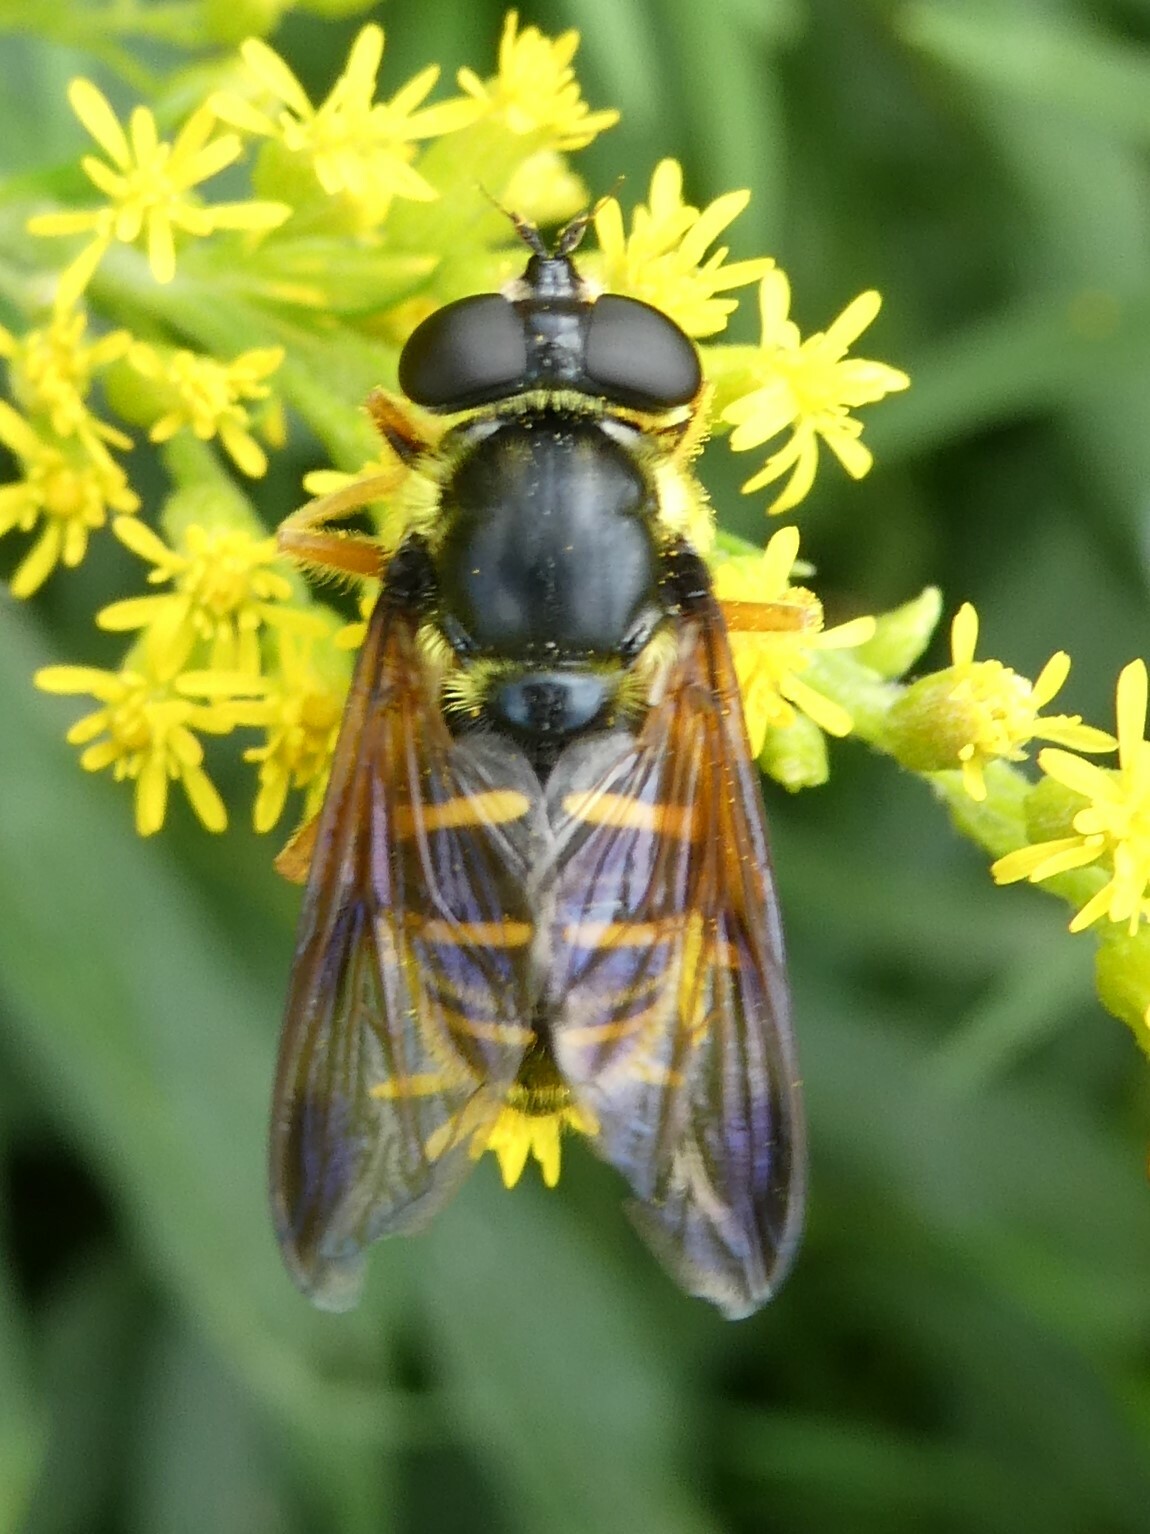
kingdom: Animalia
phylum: Arthropoda
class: Insecta
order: Diptera
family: Syrphidae
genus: Sericomyia
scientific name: Sericomyia chrysotoxoides
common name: Oblique-banded pond fly
